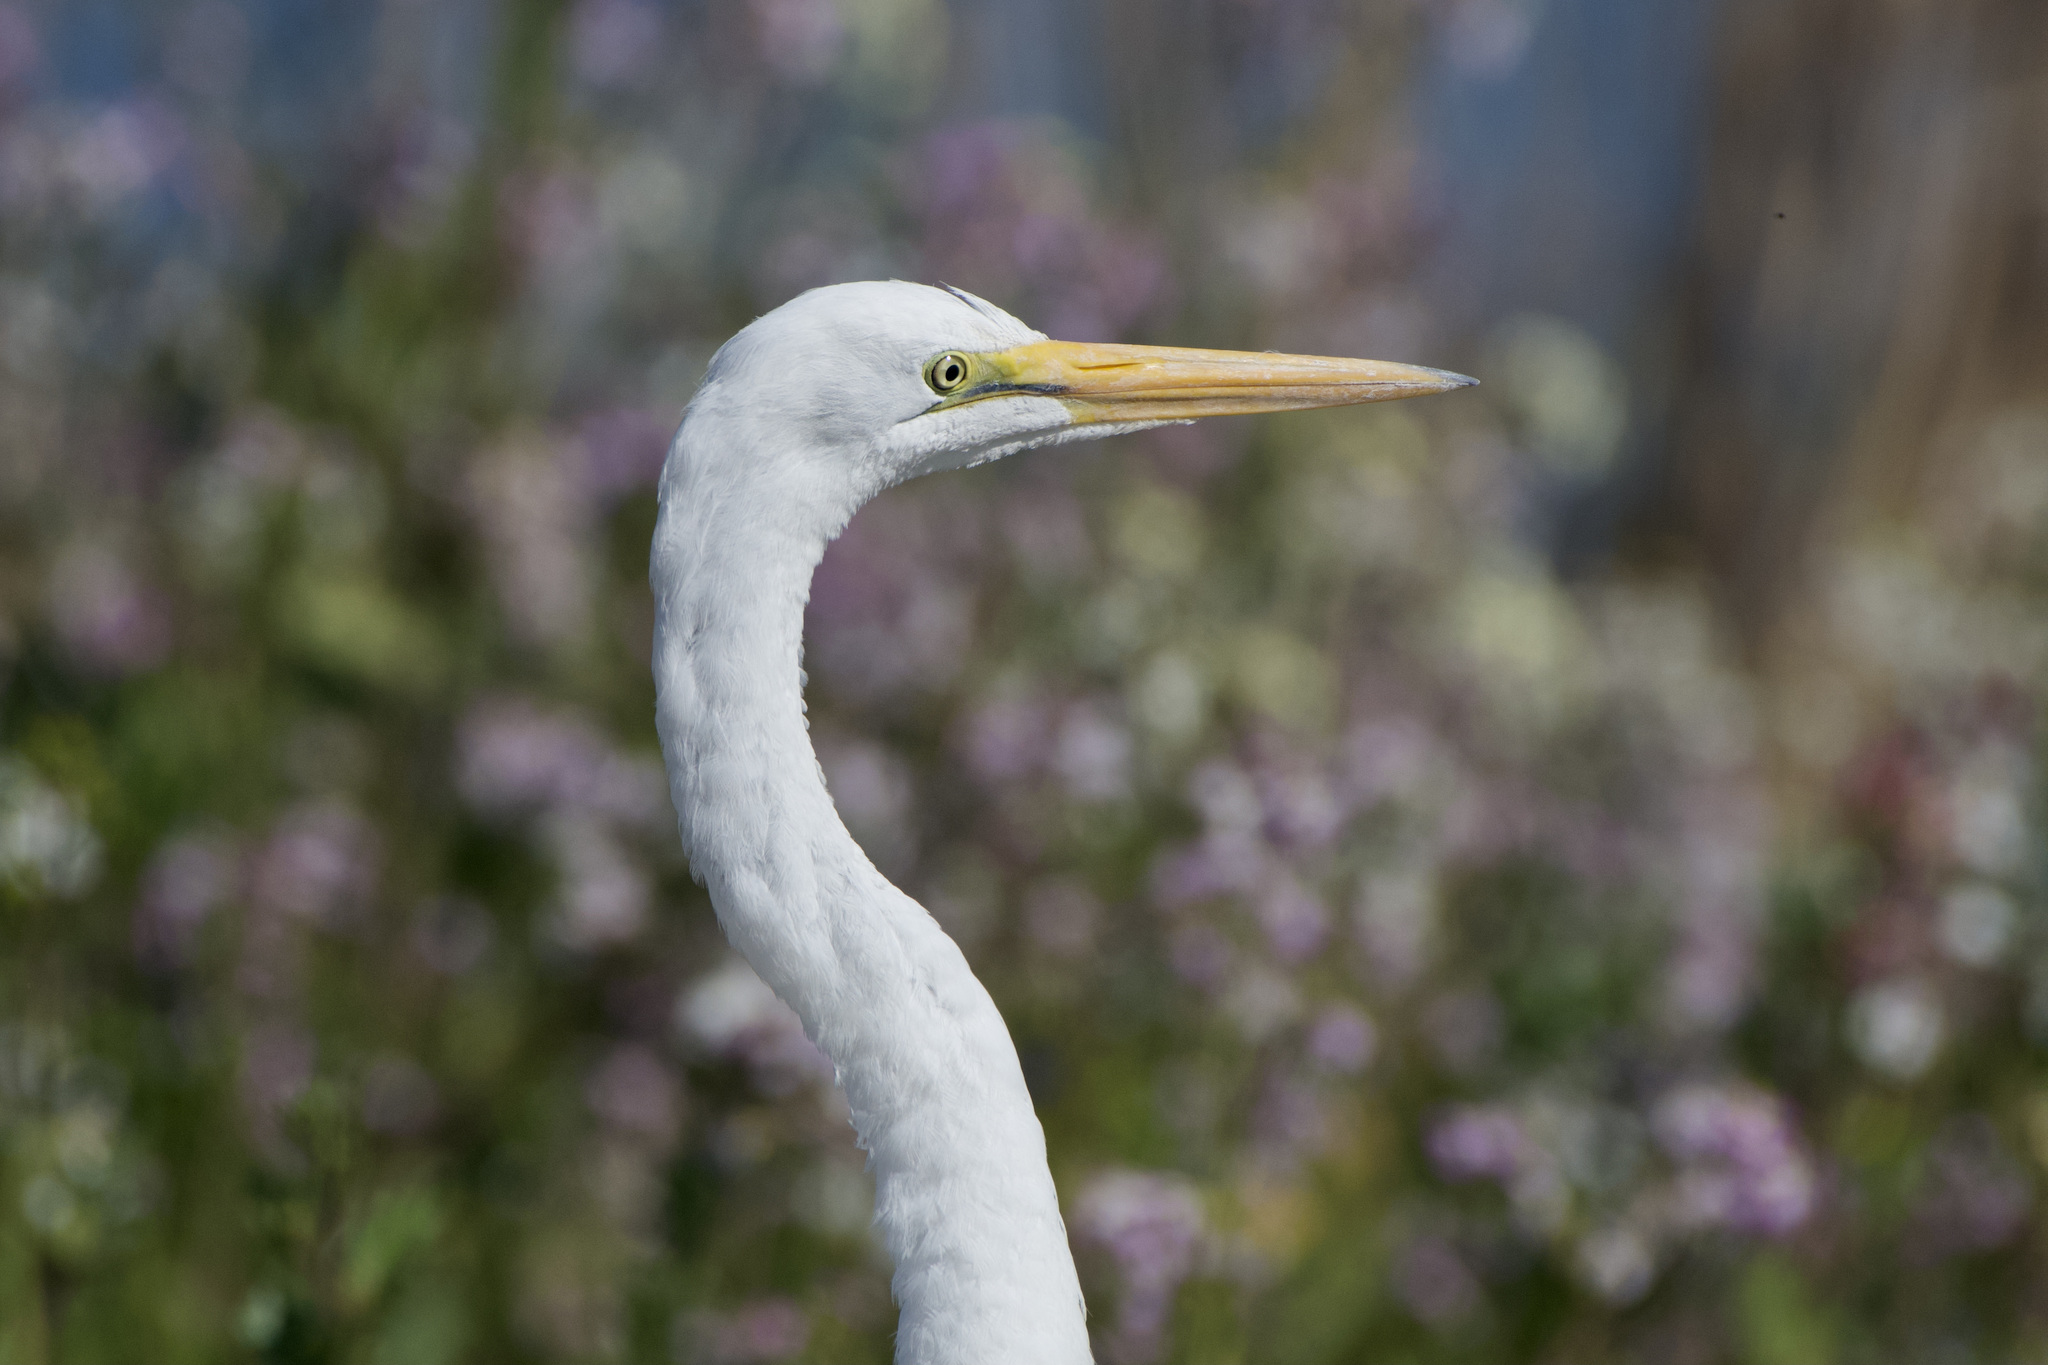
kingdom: Animalia
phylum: Chordata
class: Aves
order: Pelecaniformes
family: Ardeidae
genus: Ardea
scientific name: Ardea alba
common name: Great egret
